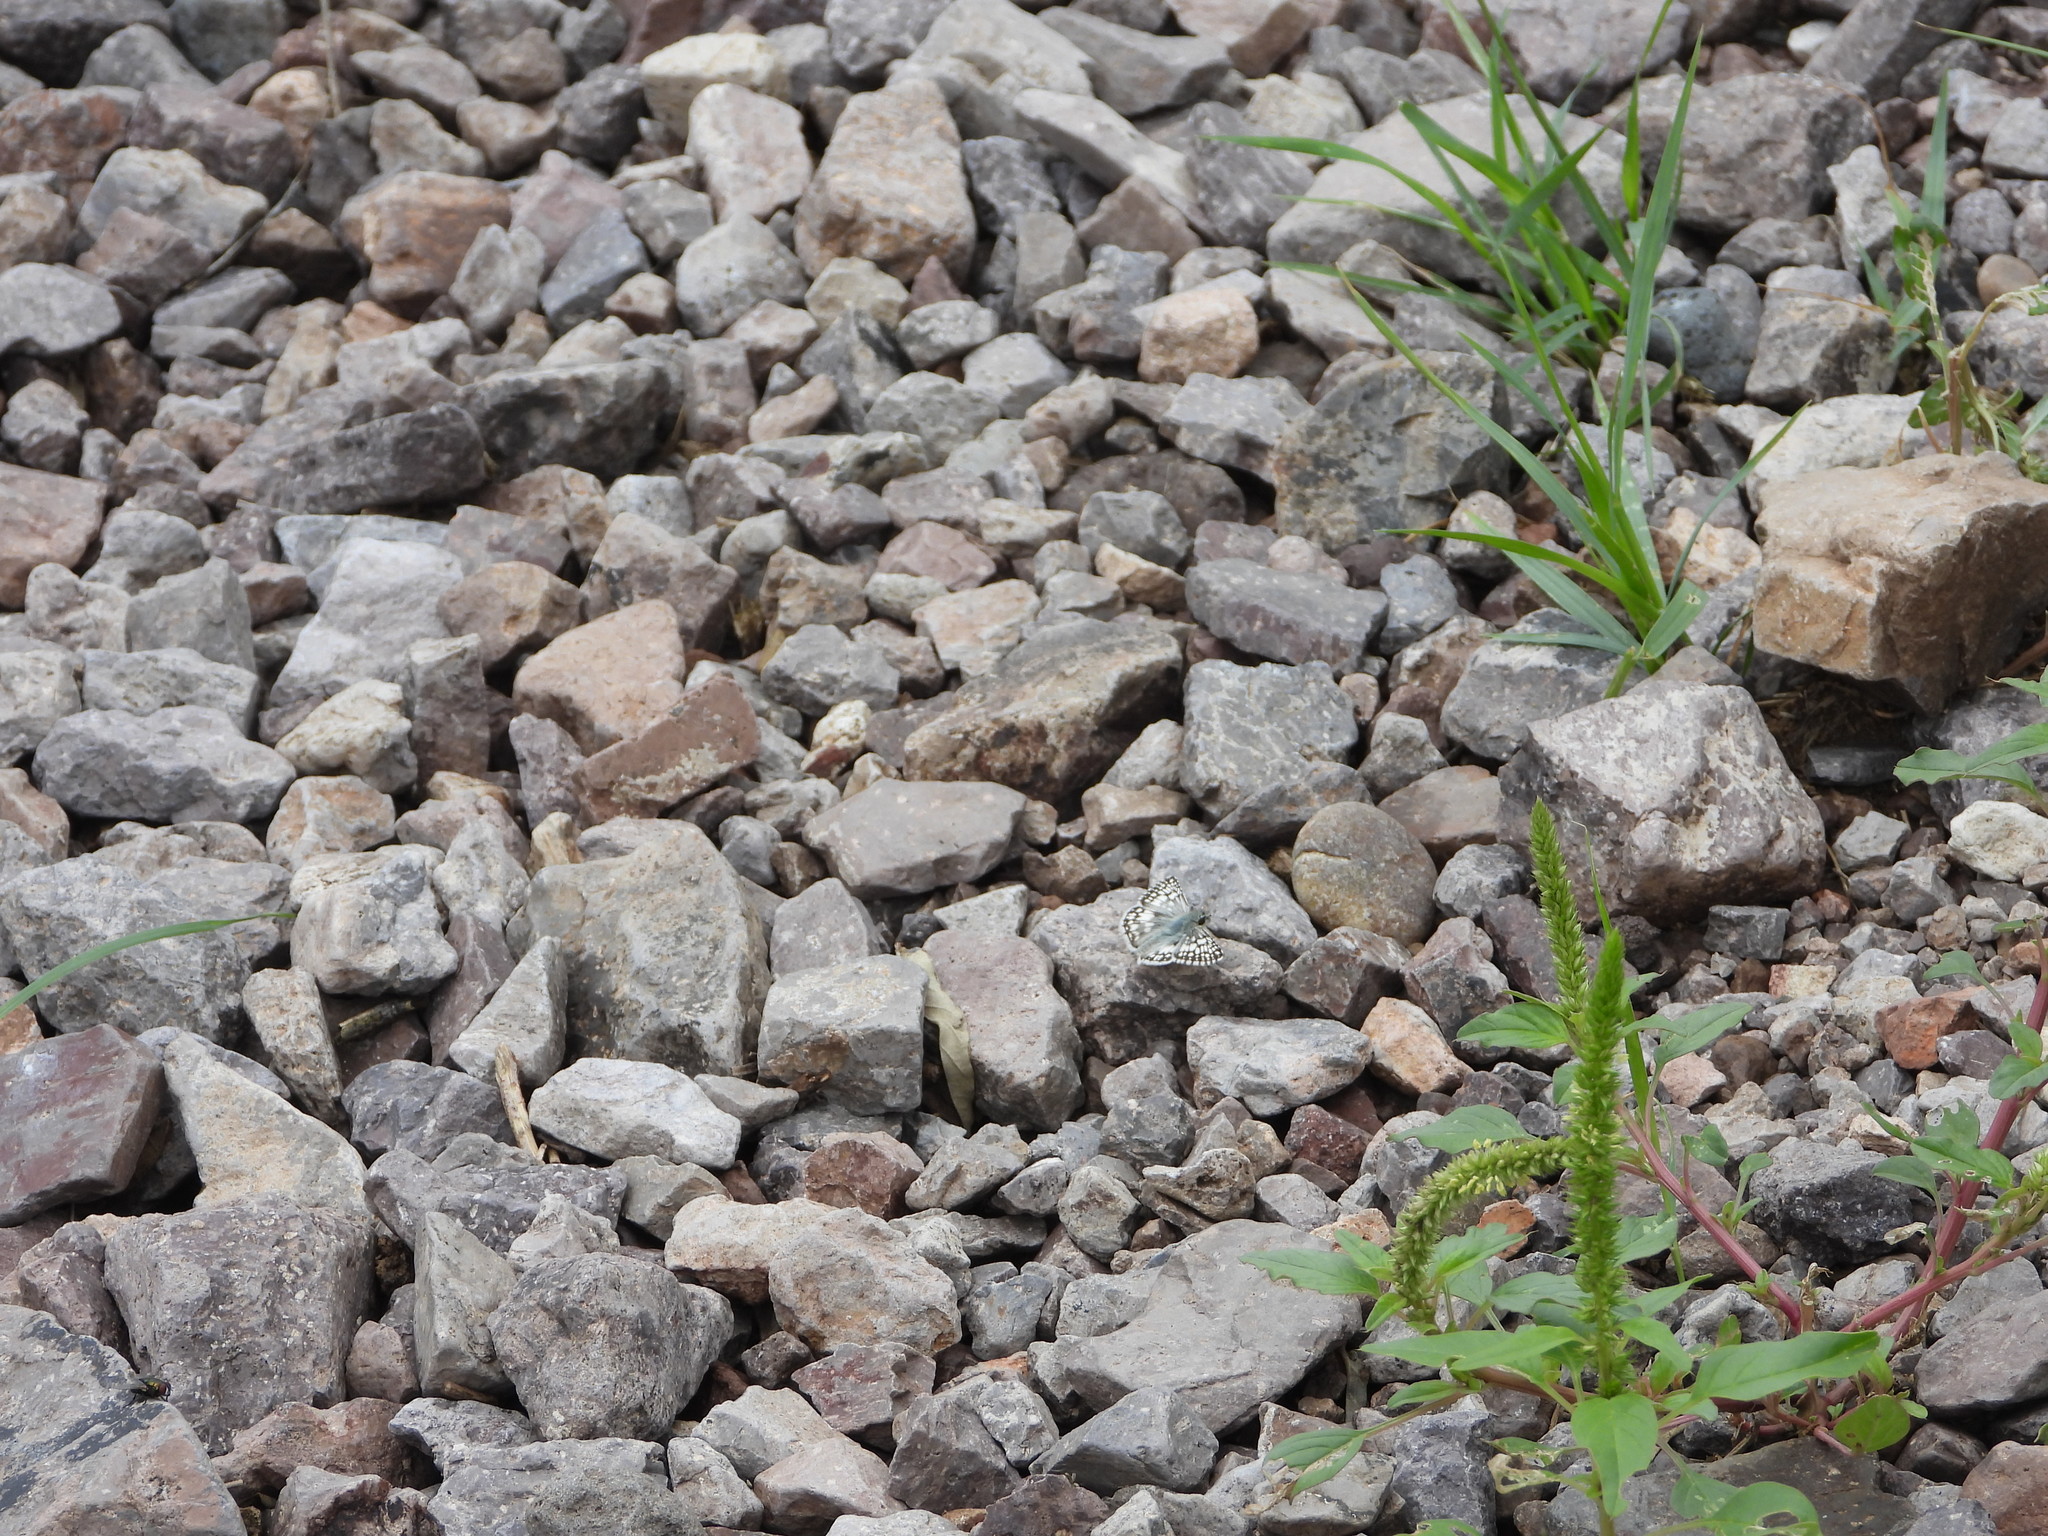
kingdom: Animalia
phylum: Arthropoda
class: Insecta
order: Lepidoptera
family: Hesperiidae
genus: Burnsius
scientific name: Burnsius
